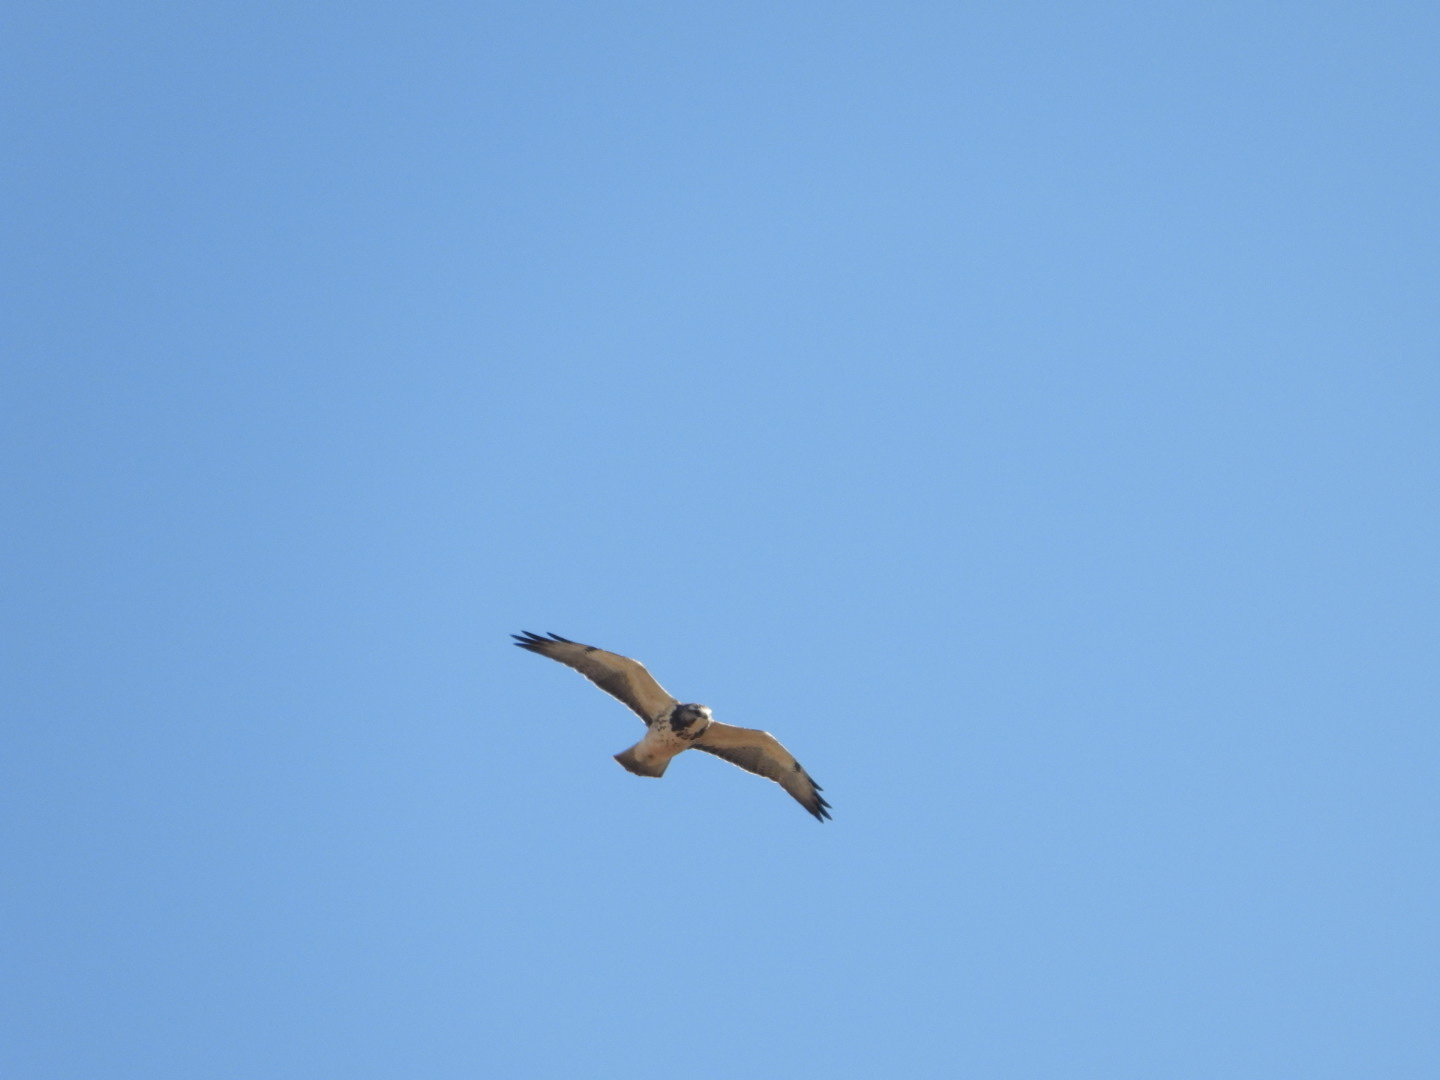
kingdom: Animalia
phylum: Chordata
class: Aves
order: Accipitriformes
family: Accipitridae
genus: Buteo
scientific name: Buteo swainsoni
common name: Swainson's hawk
